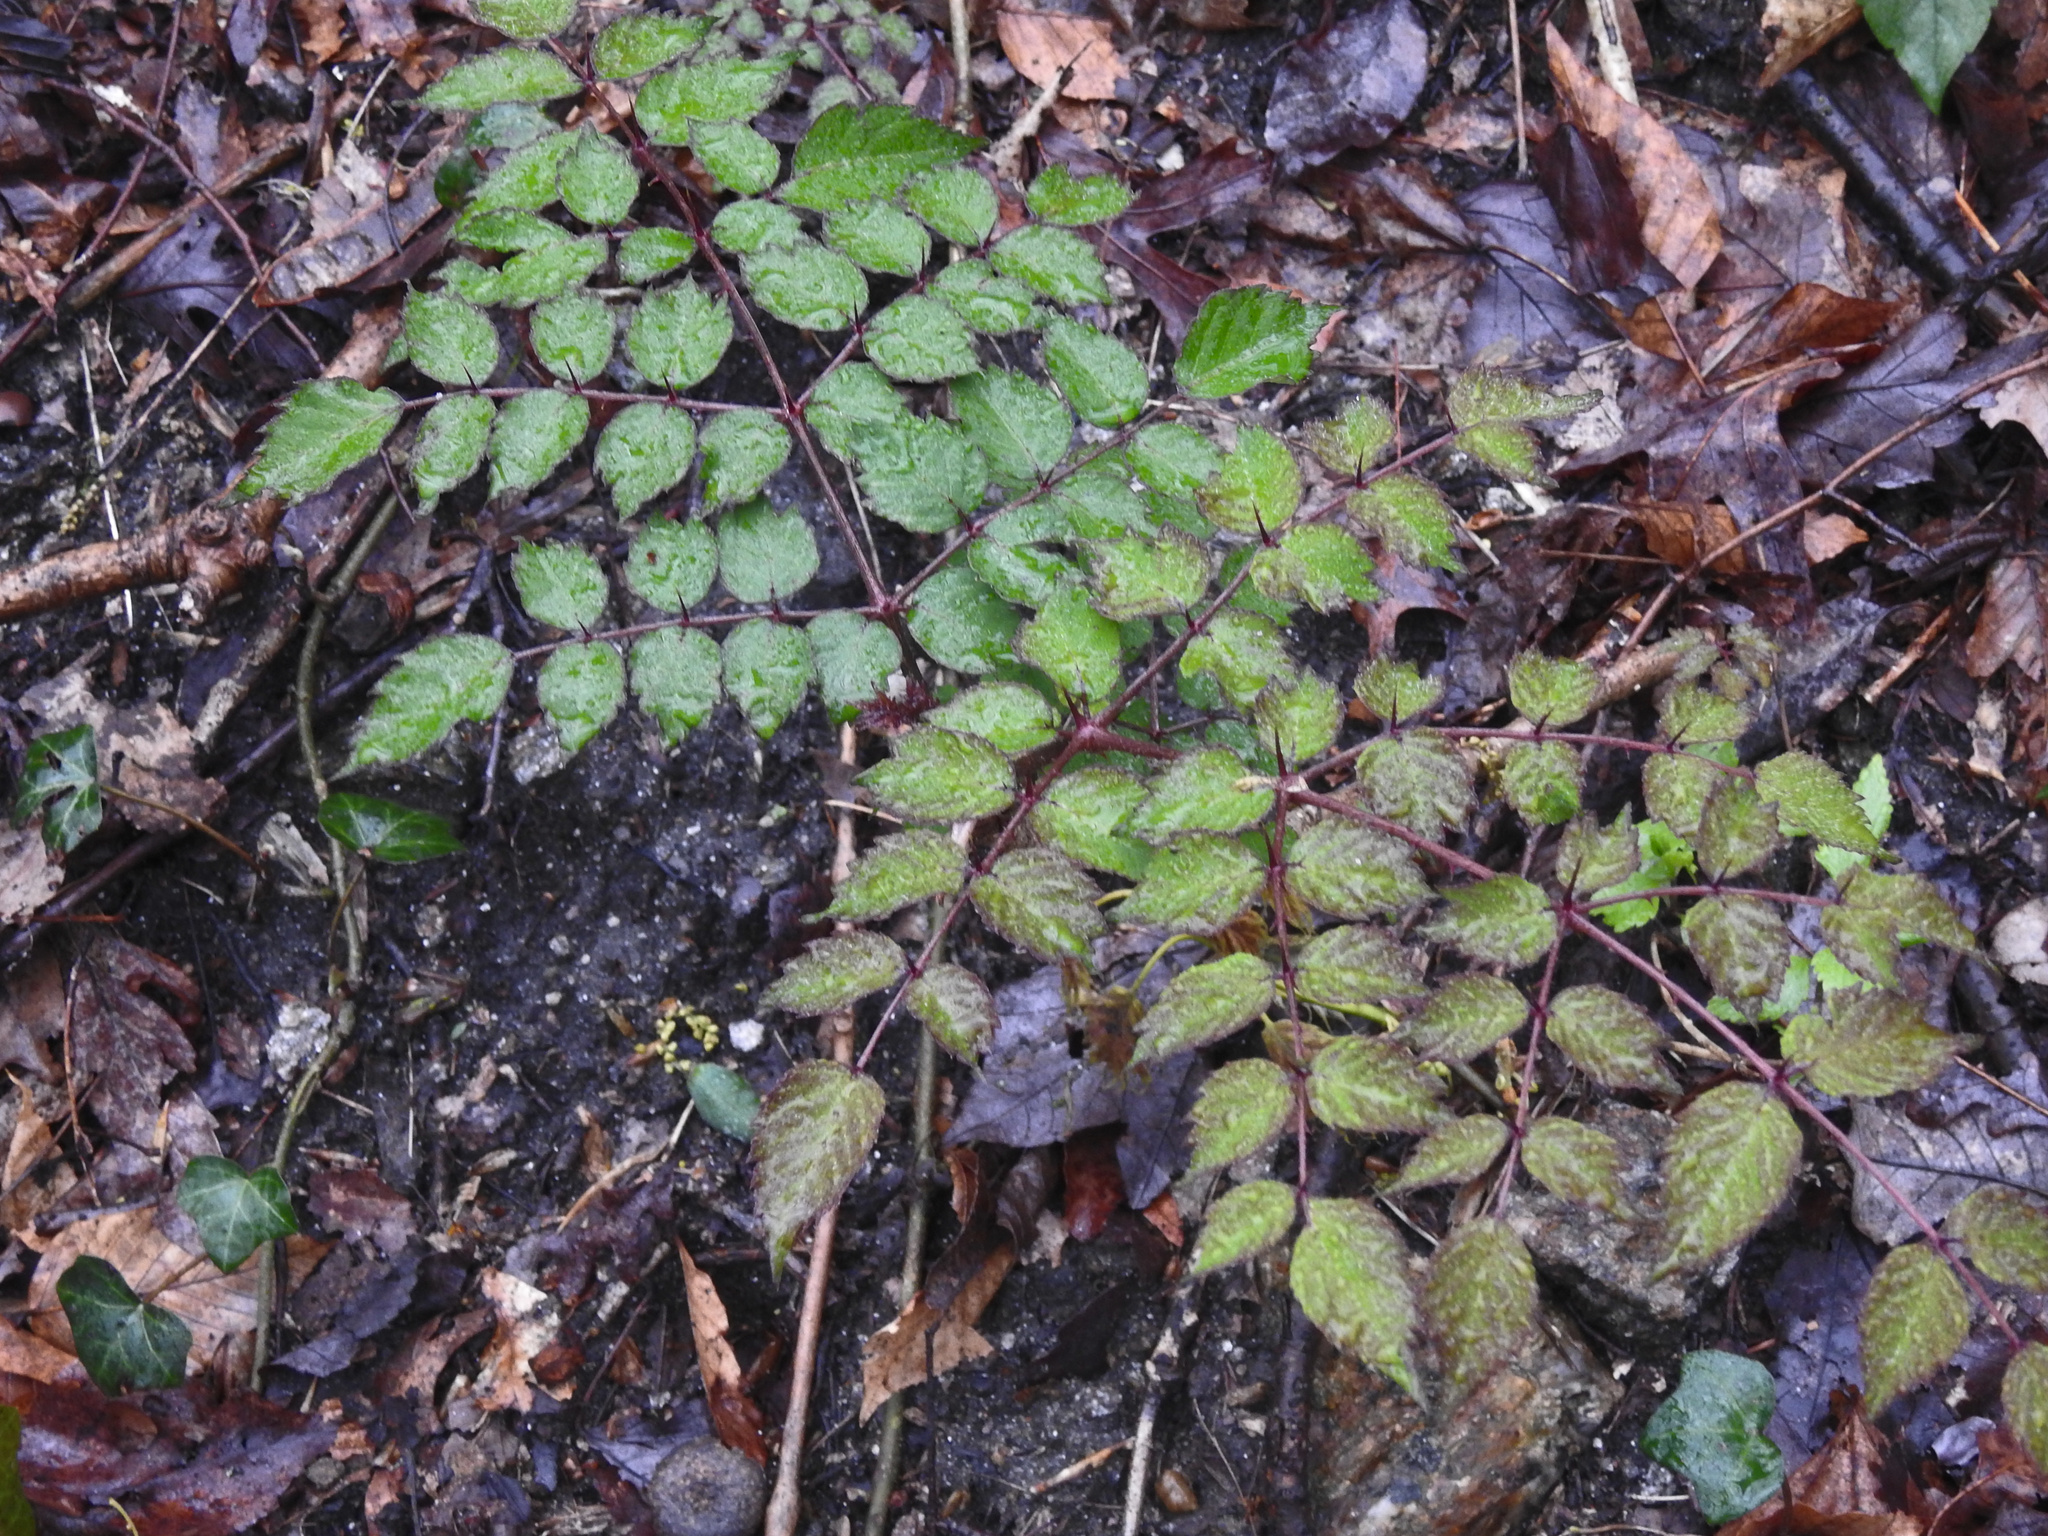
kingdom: Plantae
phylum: Tracheophyta
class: Magnoliopsida
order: Apiales
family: Araliaceae
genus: Aralia
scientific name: Aralia elata
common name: Japanese angelica-tree
